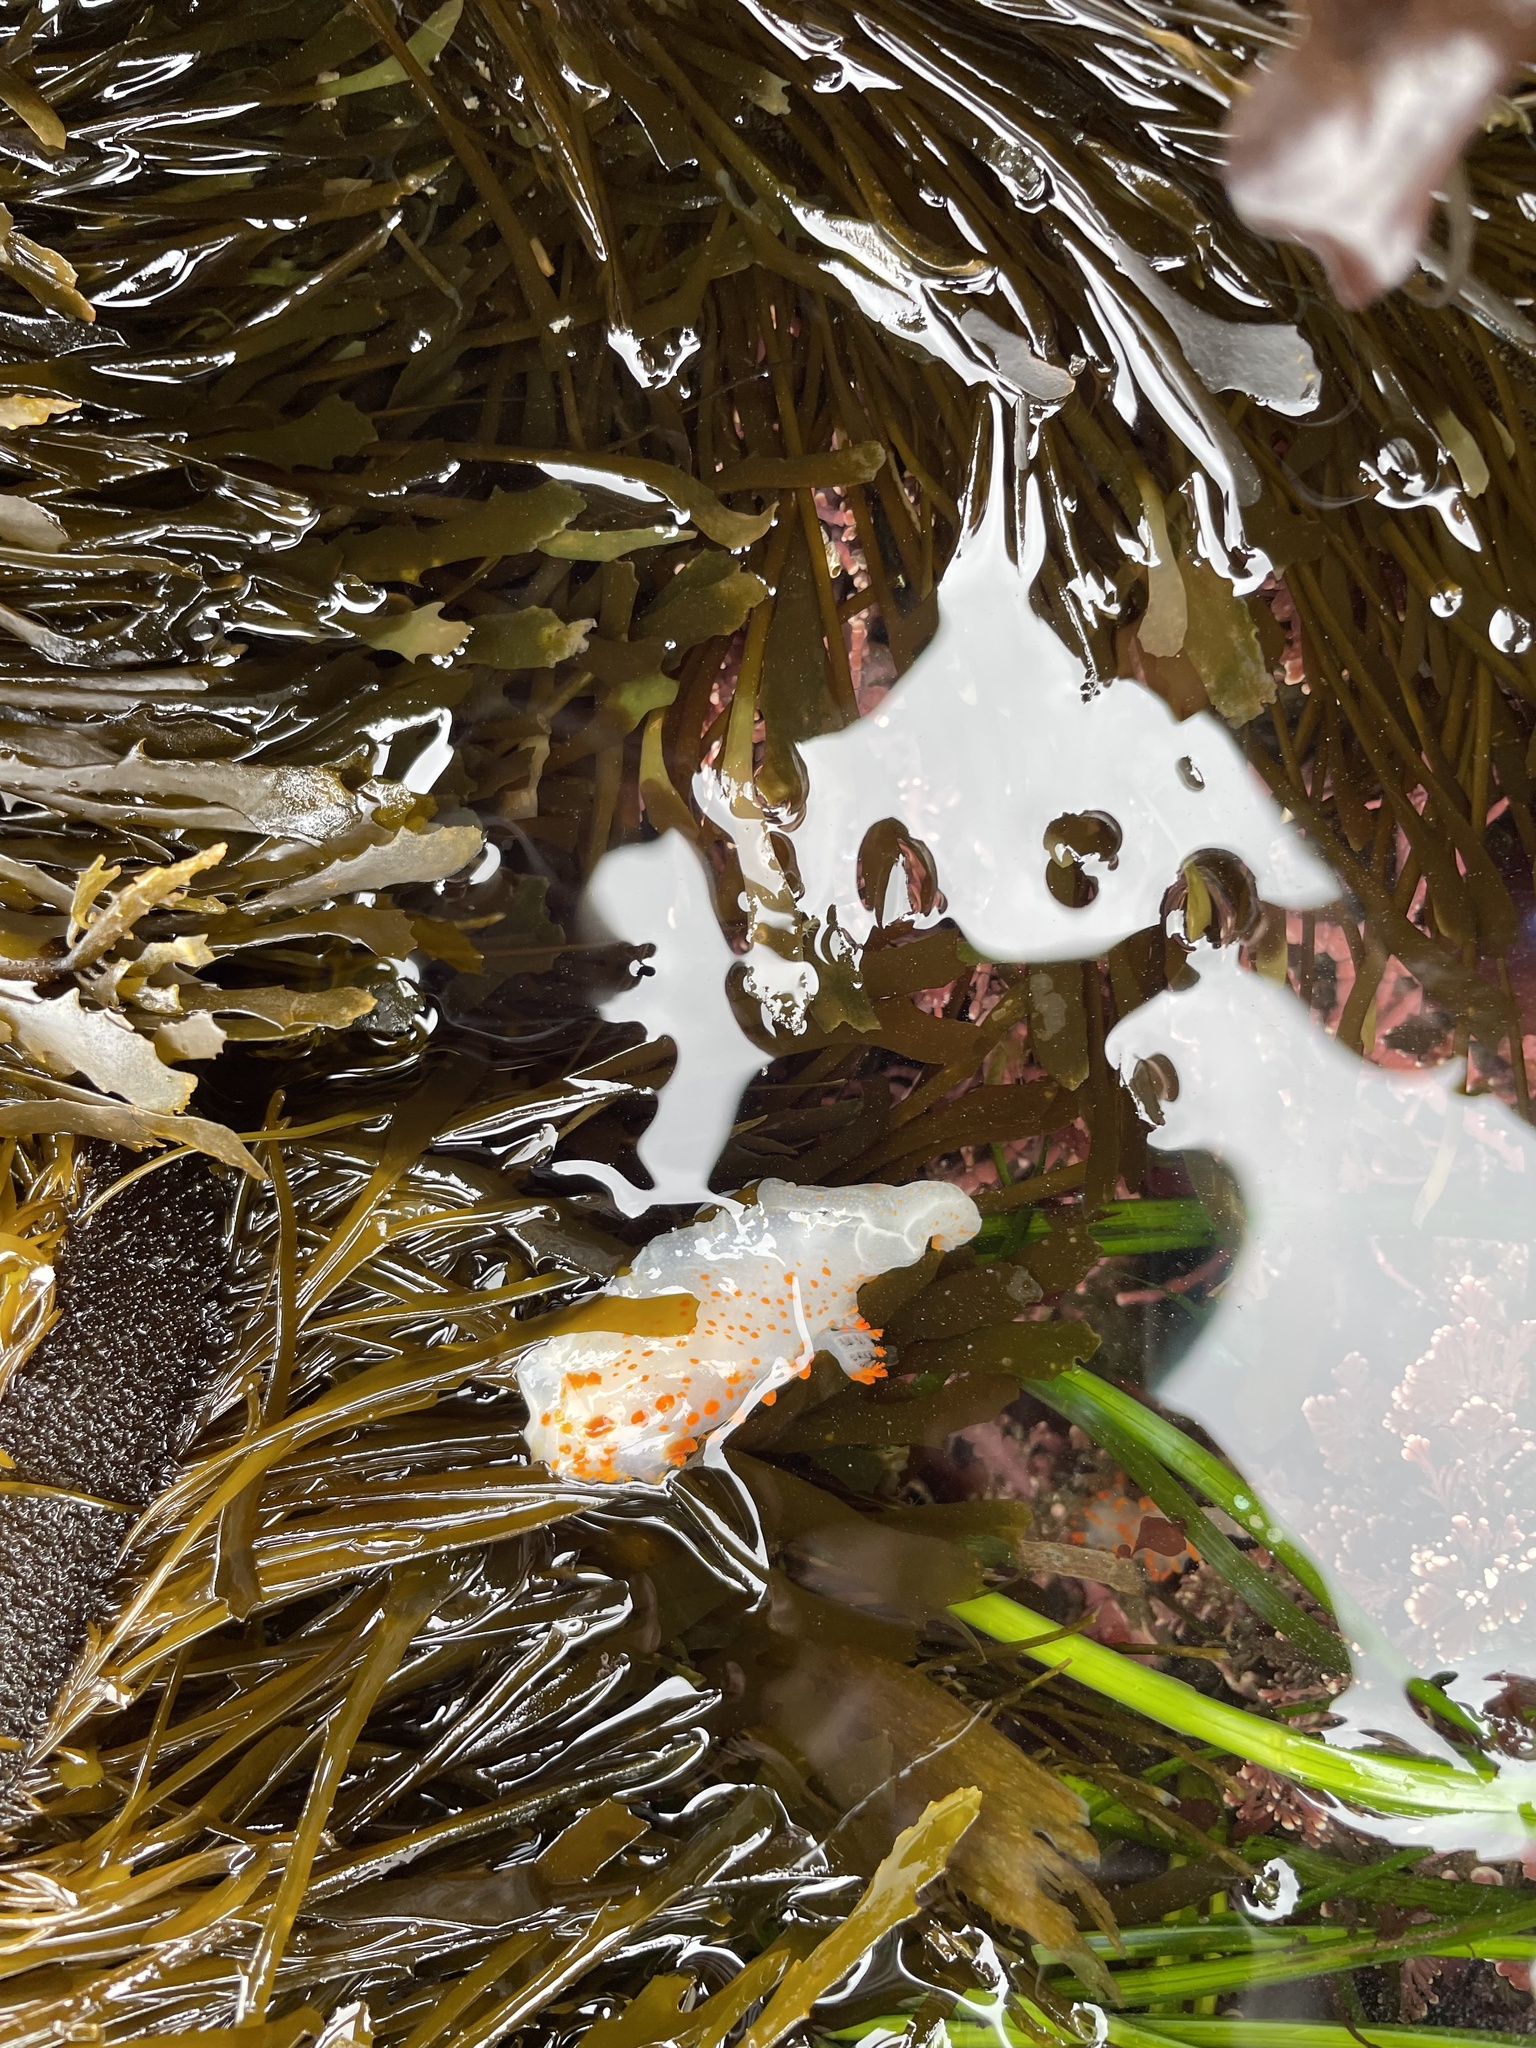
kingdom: Animalia
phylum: Mollusca
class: Gastropoda
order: Nudibranchia
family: Polyceridae
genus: Triopha
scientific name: Triopha catalinae
